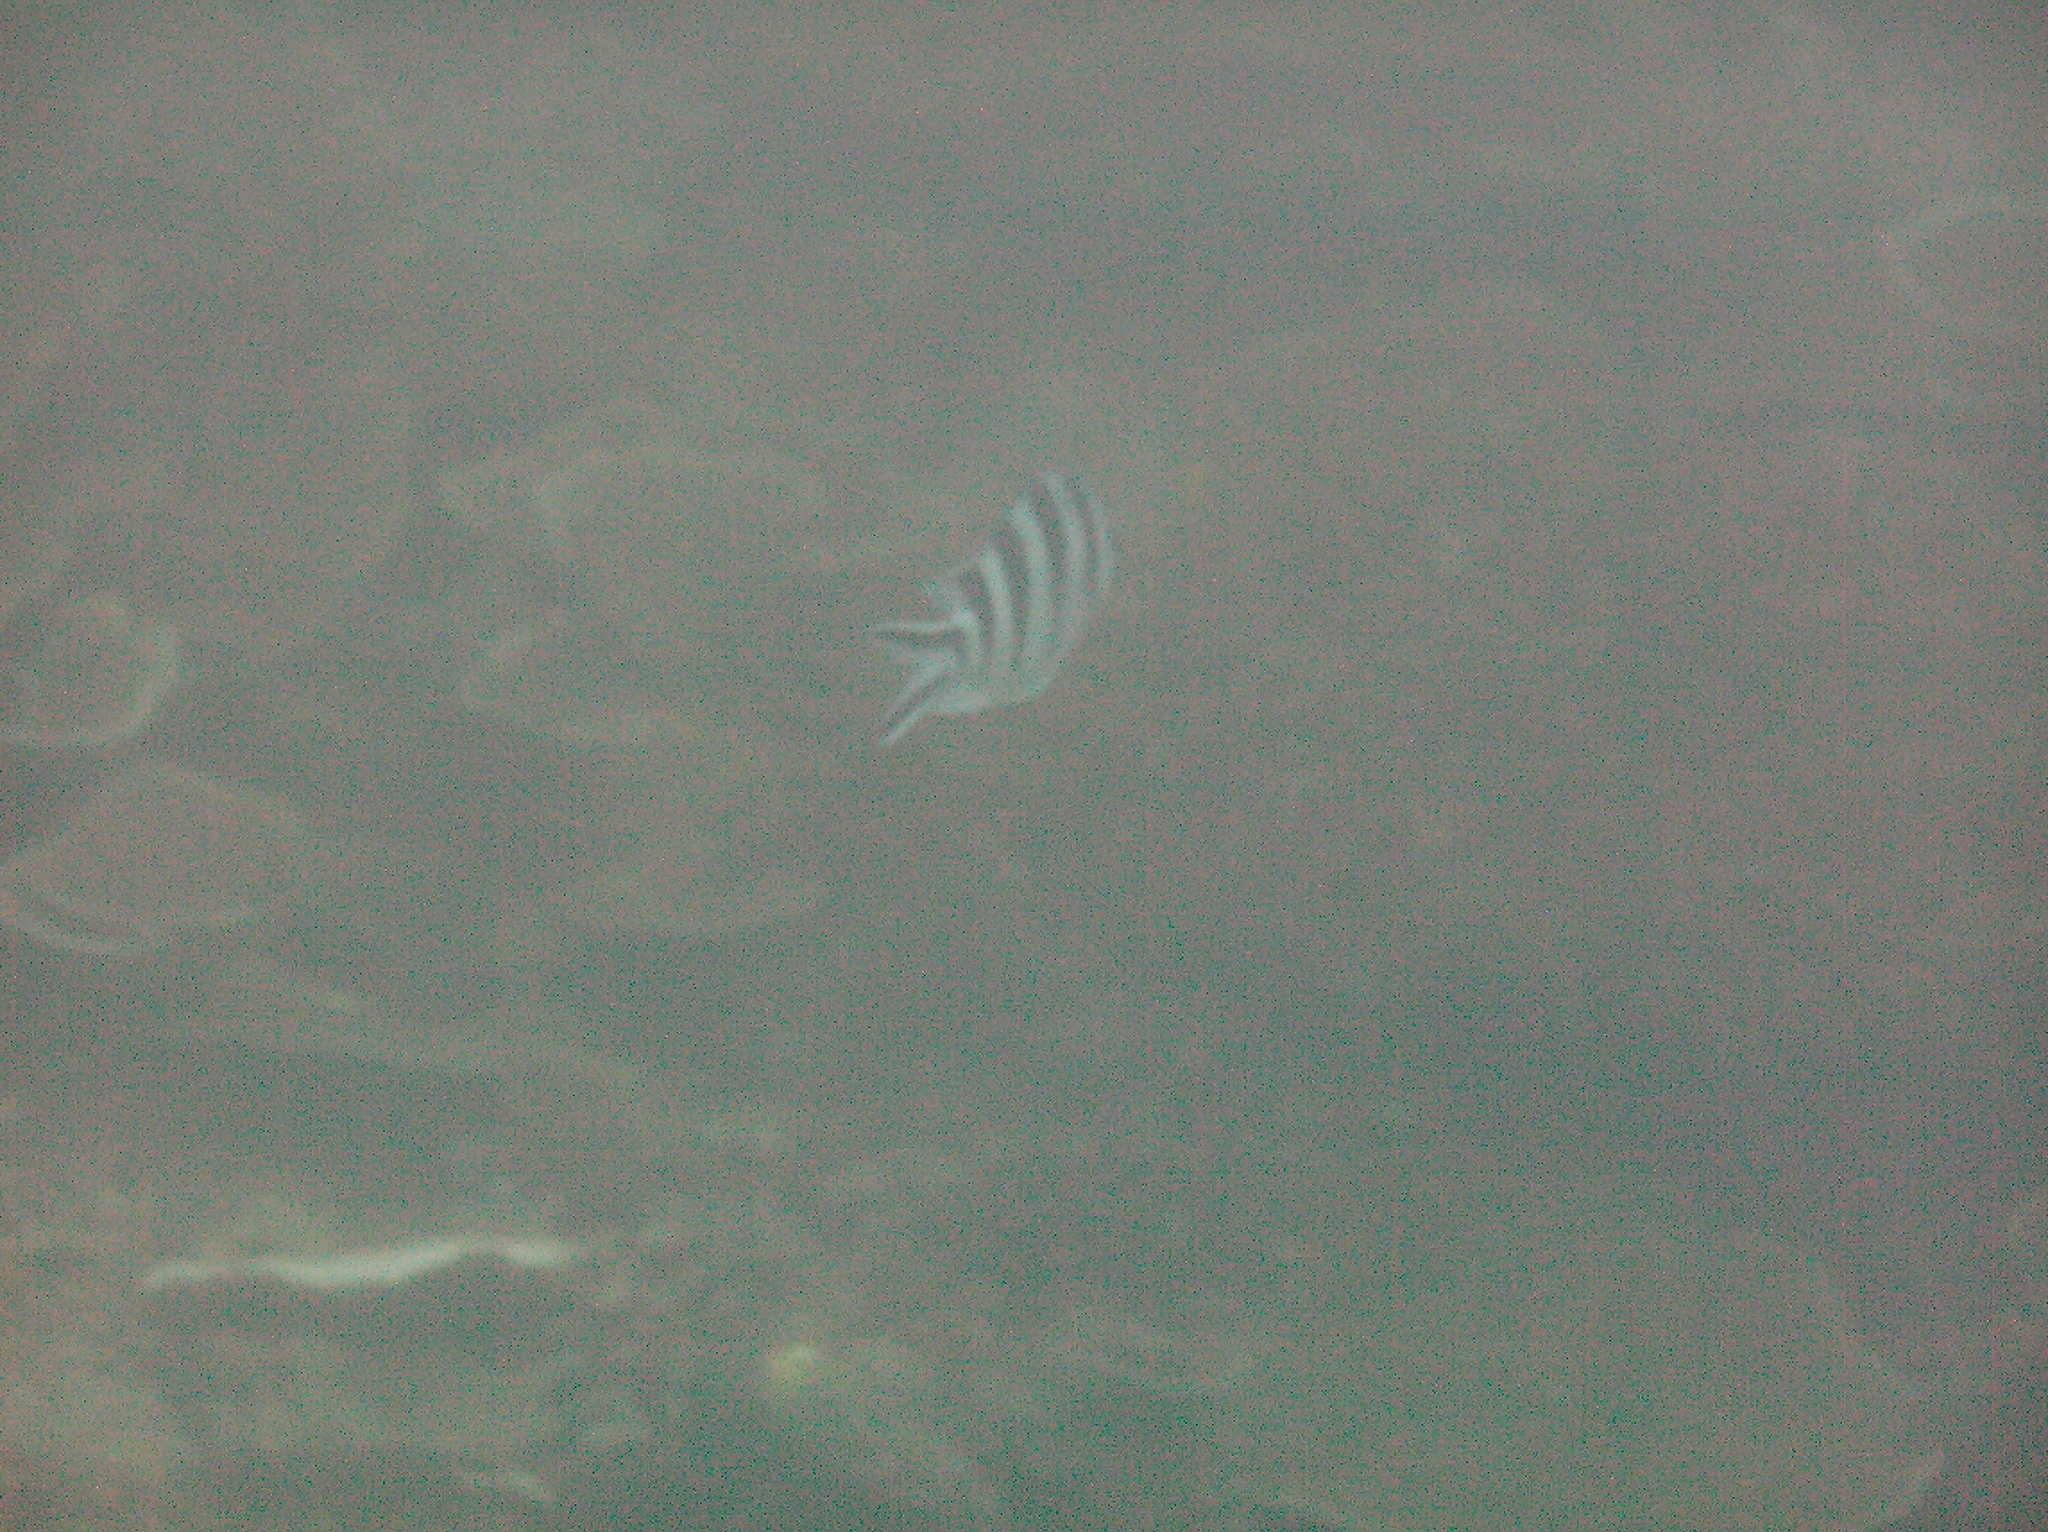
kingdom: Animalia
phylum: Chordata
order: Perciformes
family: Pomacentridae
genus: Abudefduf
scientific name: Abudefduf sexfasciatus
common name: Scissortail sergeant
